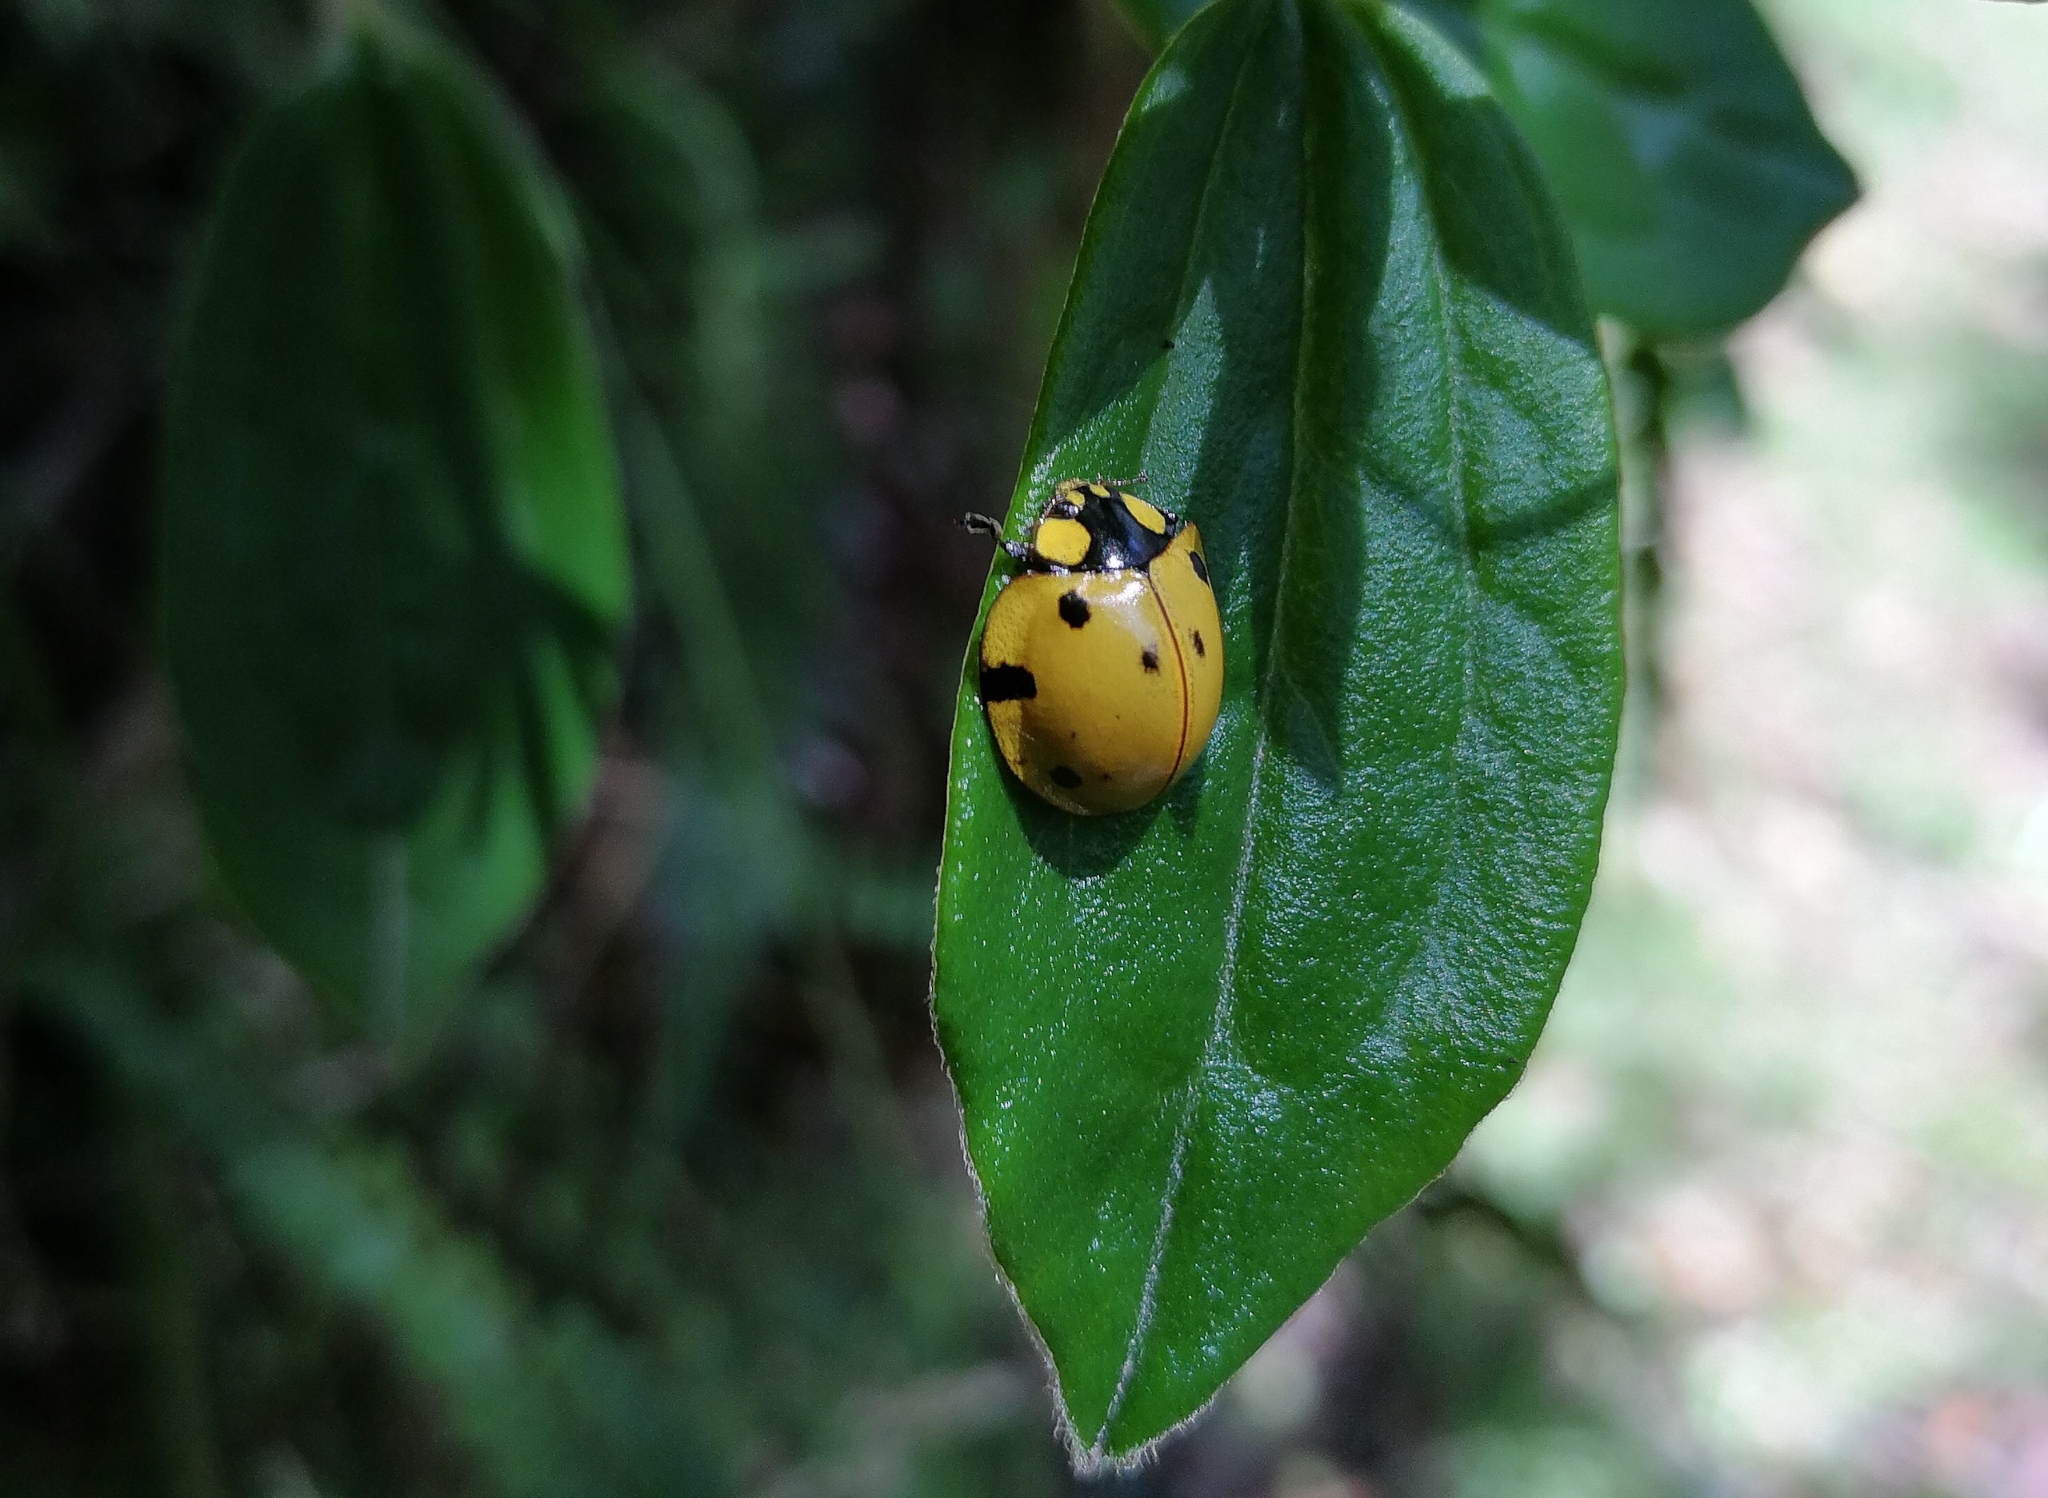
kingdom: Animalia
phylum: Arthropoda
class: Insecta
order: Coleoptera
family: Coccinellidae
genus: Neda
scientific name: Neda norrisi
